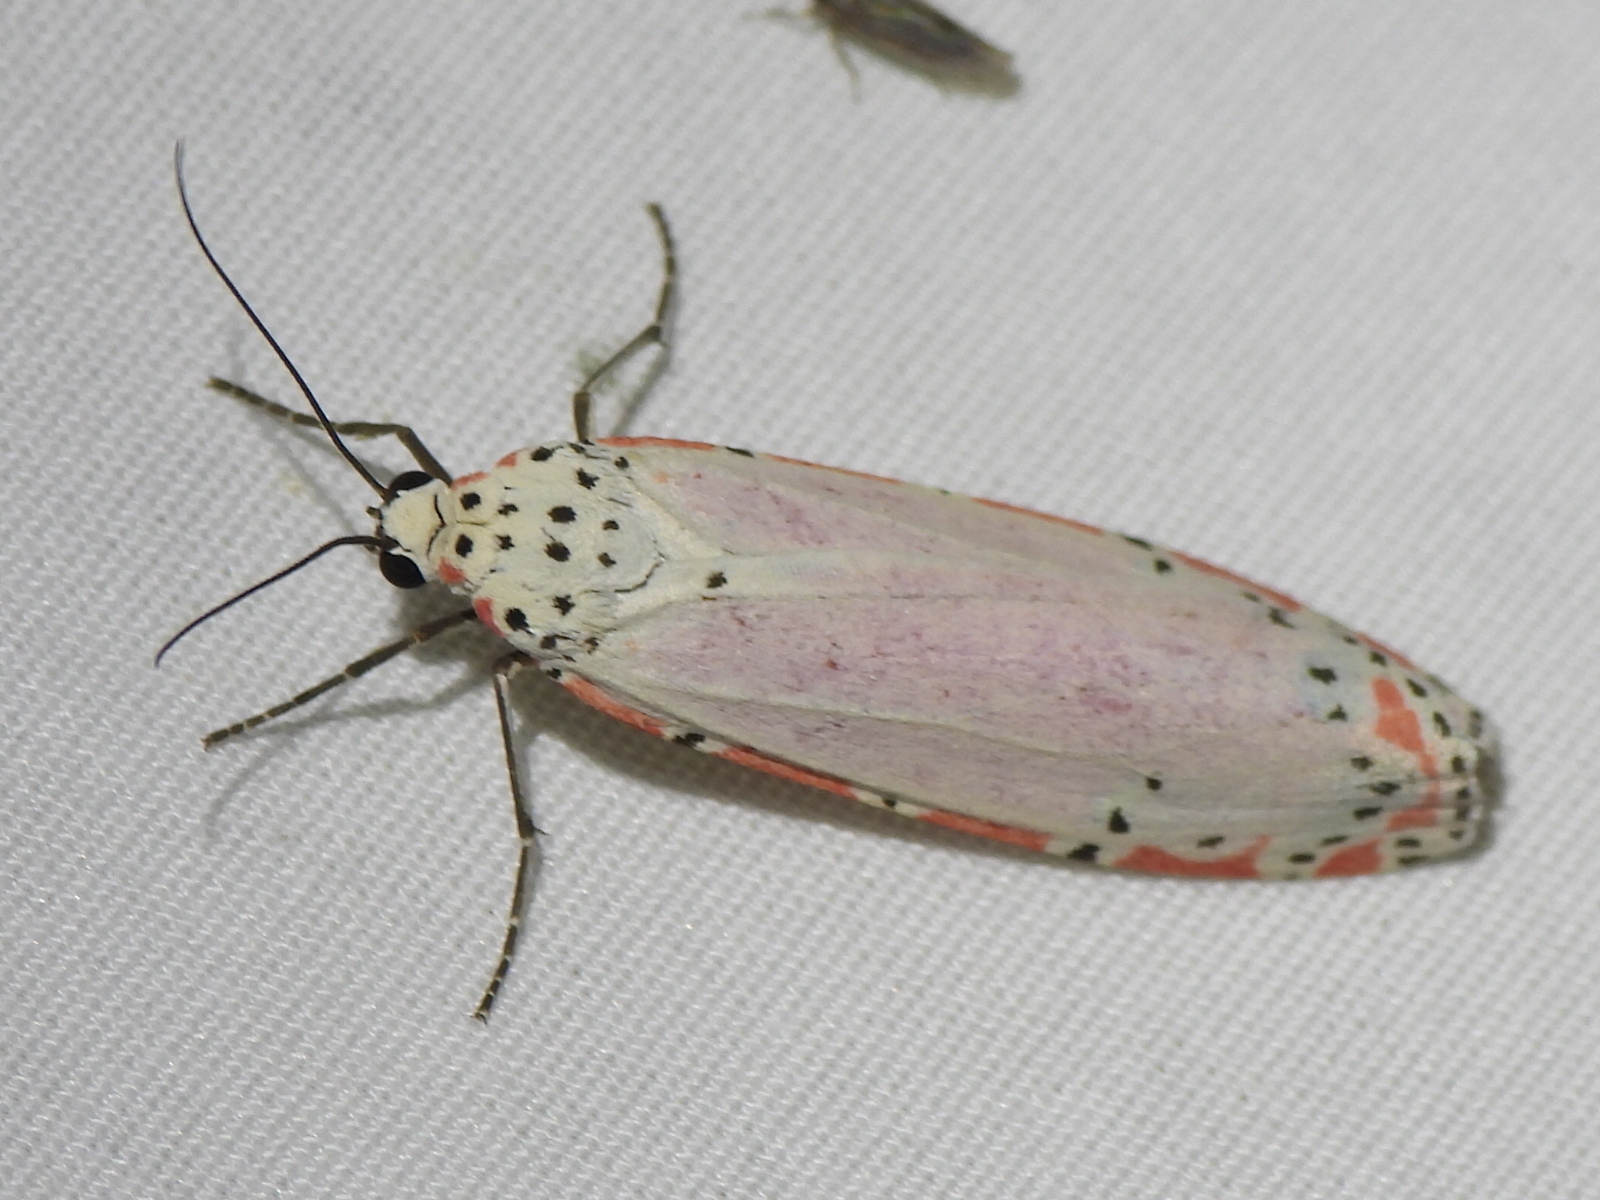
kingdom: Animalia
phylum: Arthropoda
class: Insecta
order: Lepidoptera
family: Erebidae
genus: Utetheisa
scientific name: Utetheisa ornatrix
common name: Beautiful utetheisa
